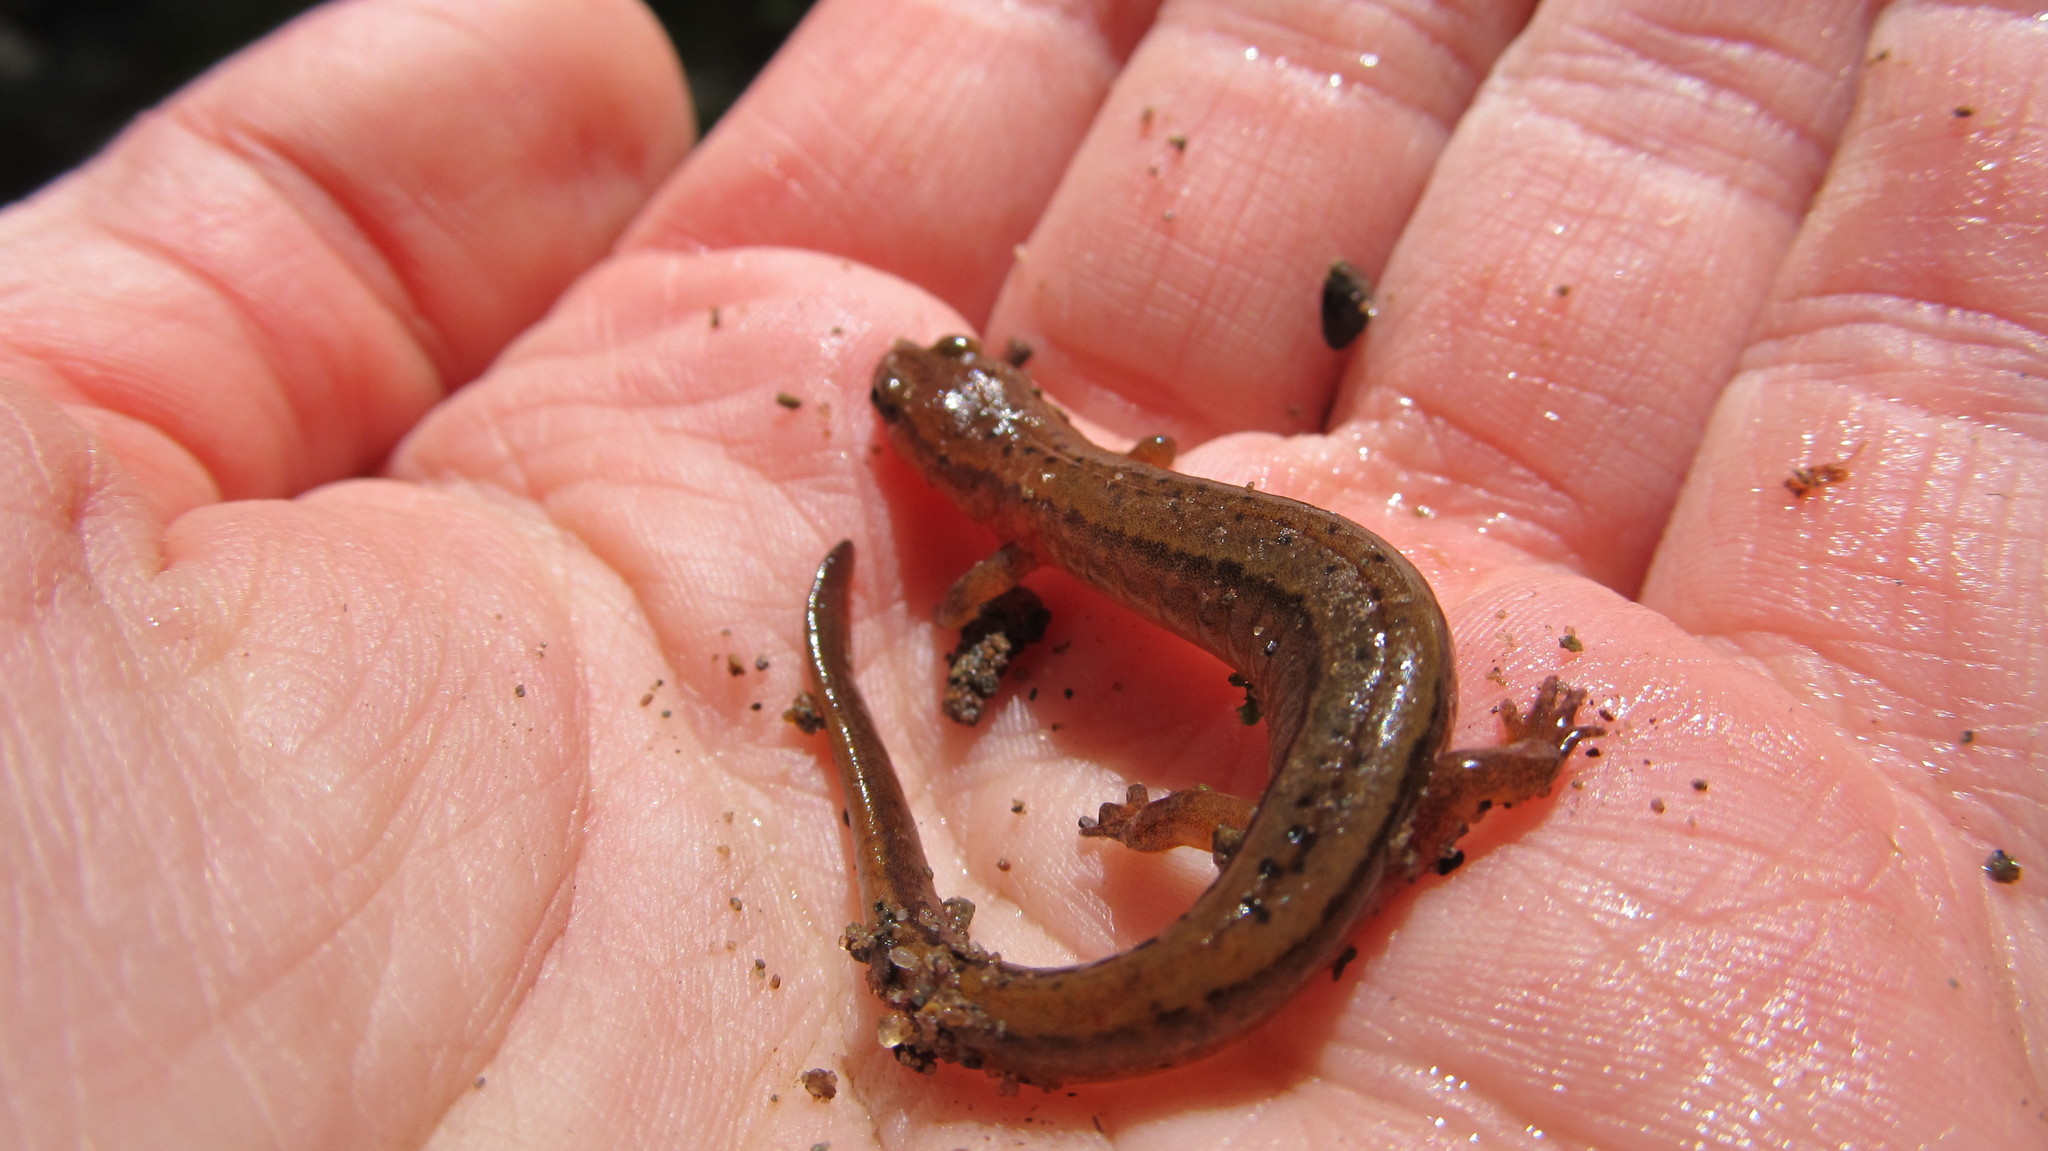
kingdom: Animalia
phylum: Chordata
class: Amphibia
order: Caudata
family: Plethodontidae
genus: Eurycea
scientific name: Eurycea bislineata
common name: Northern two-lined salamander
